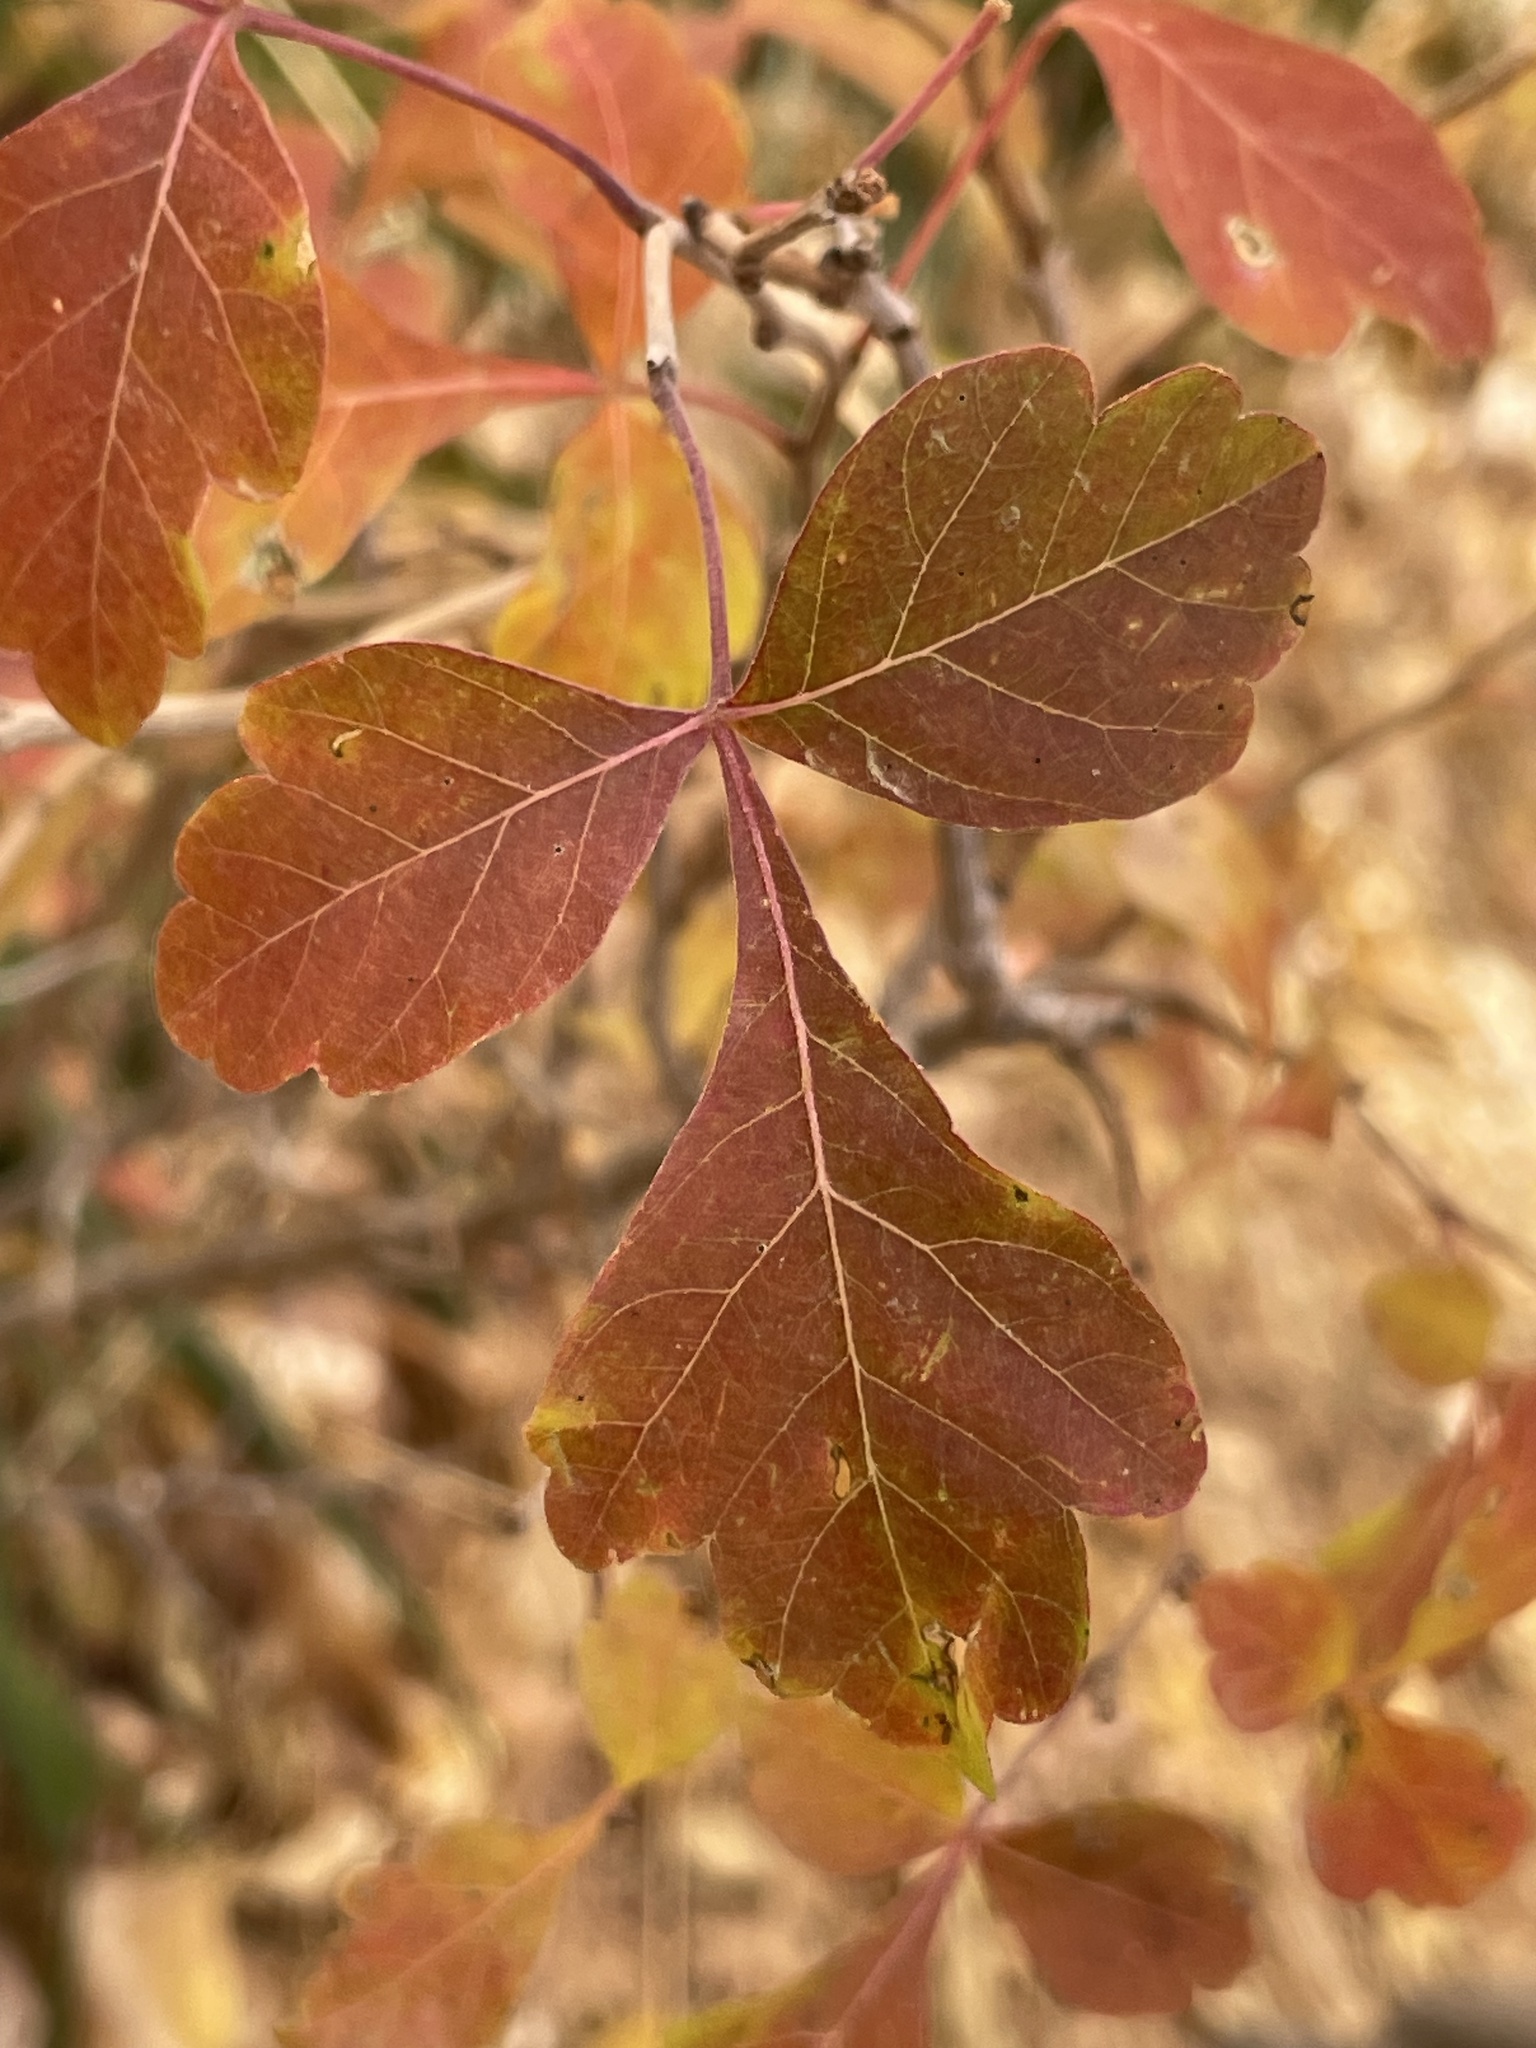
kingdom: Plantae
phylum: Tracheophyta
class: Magnoliopsida
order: Sapindales
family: Anacardiaceae
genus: Rhus
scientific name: Rhus trilobata
